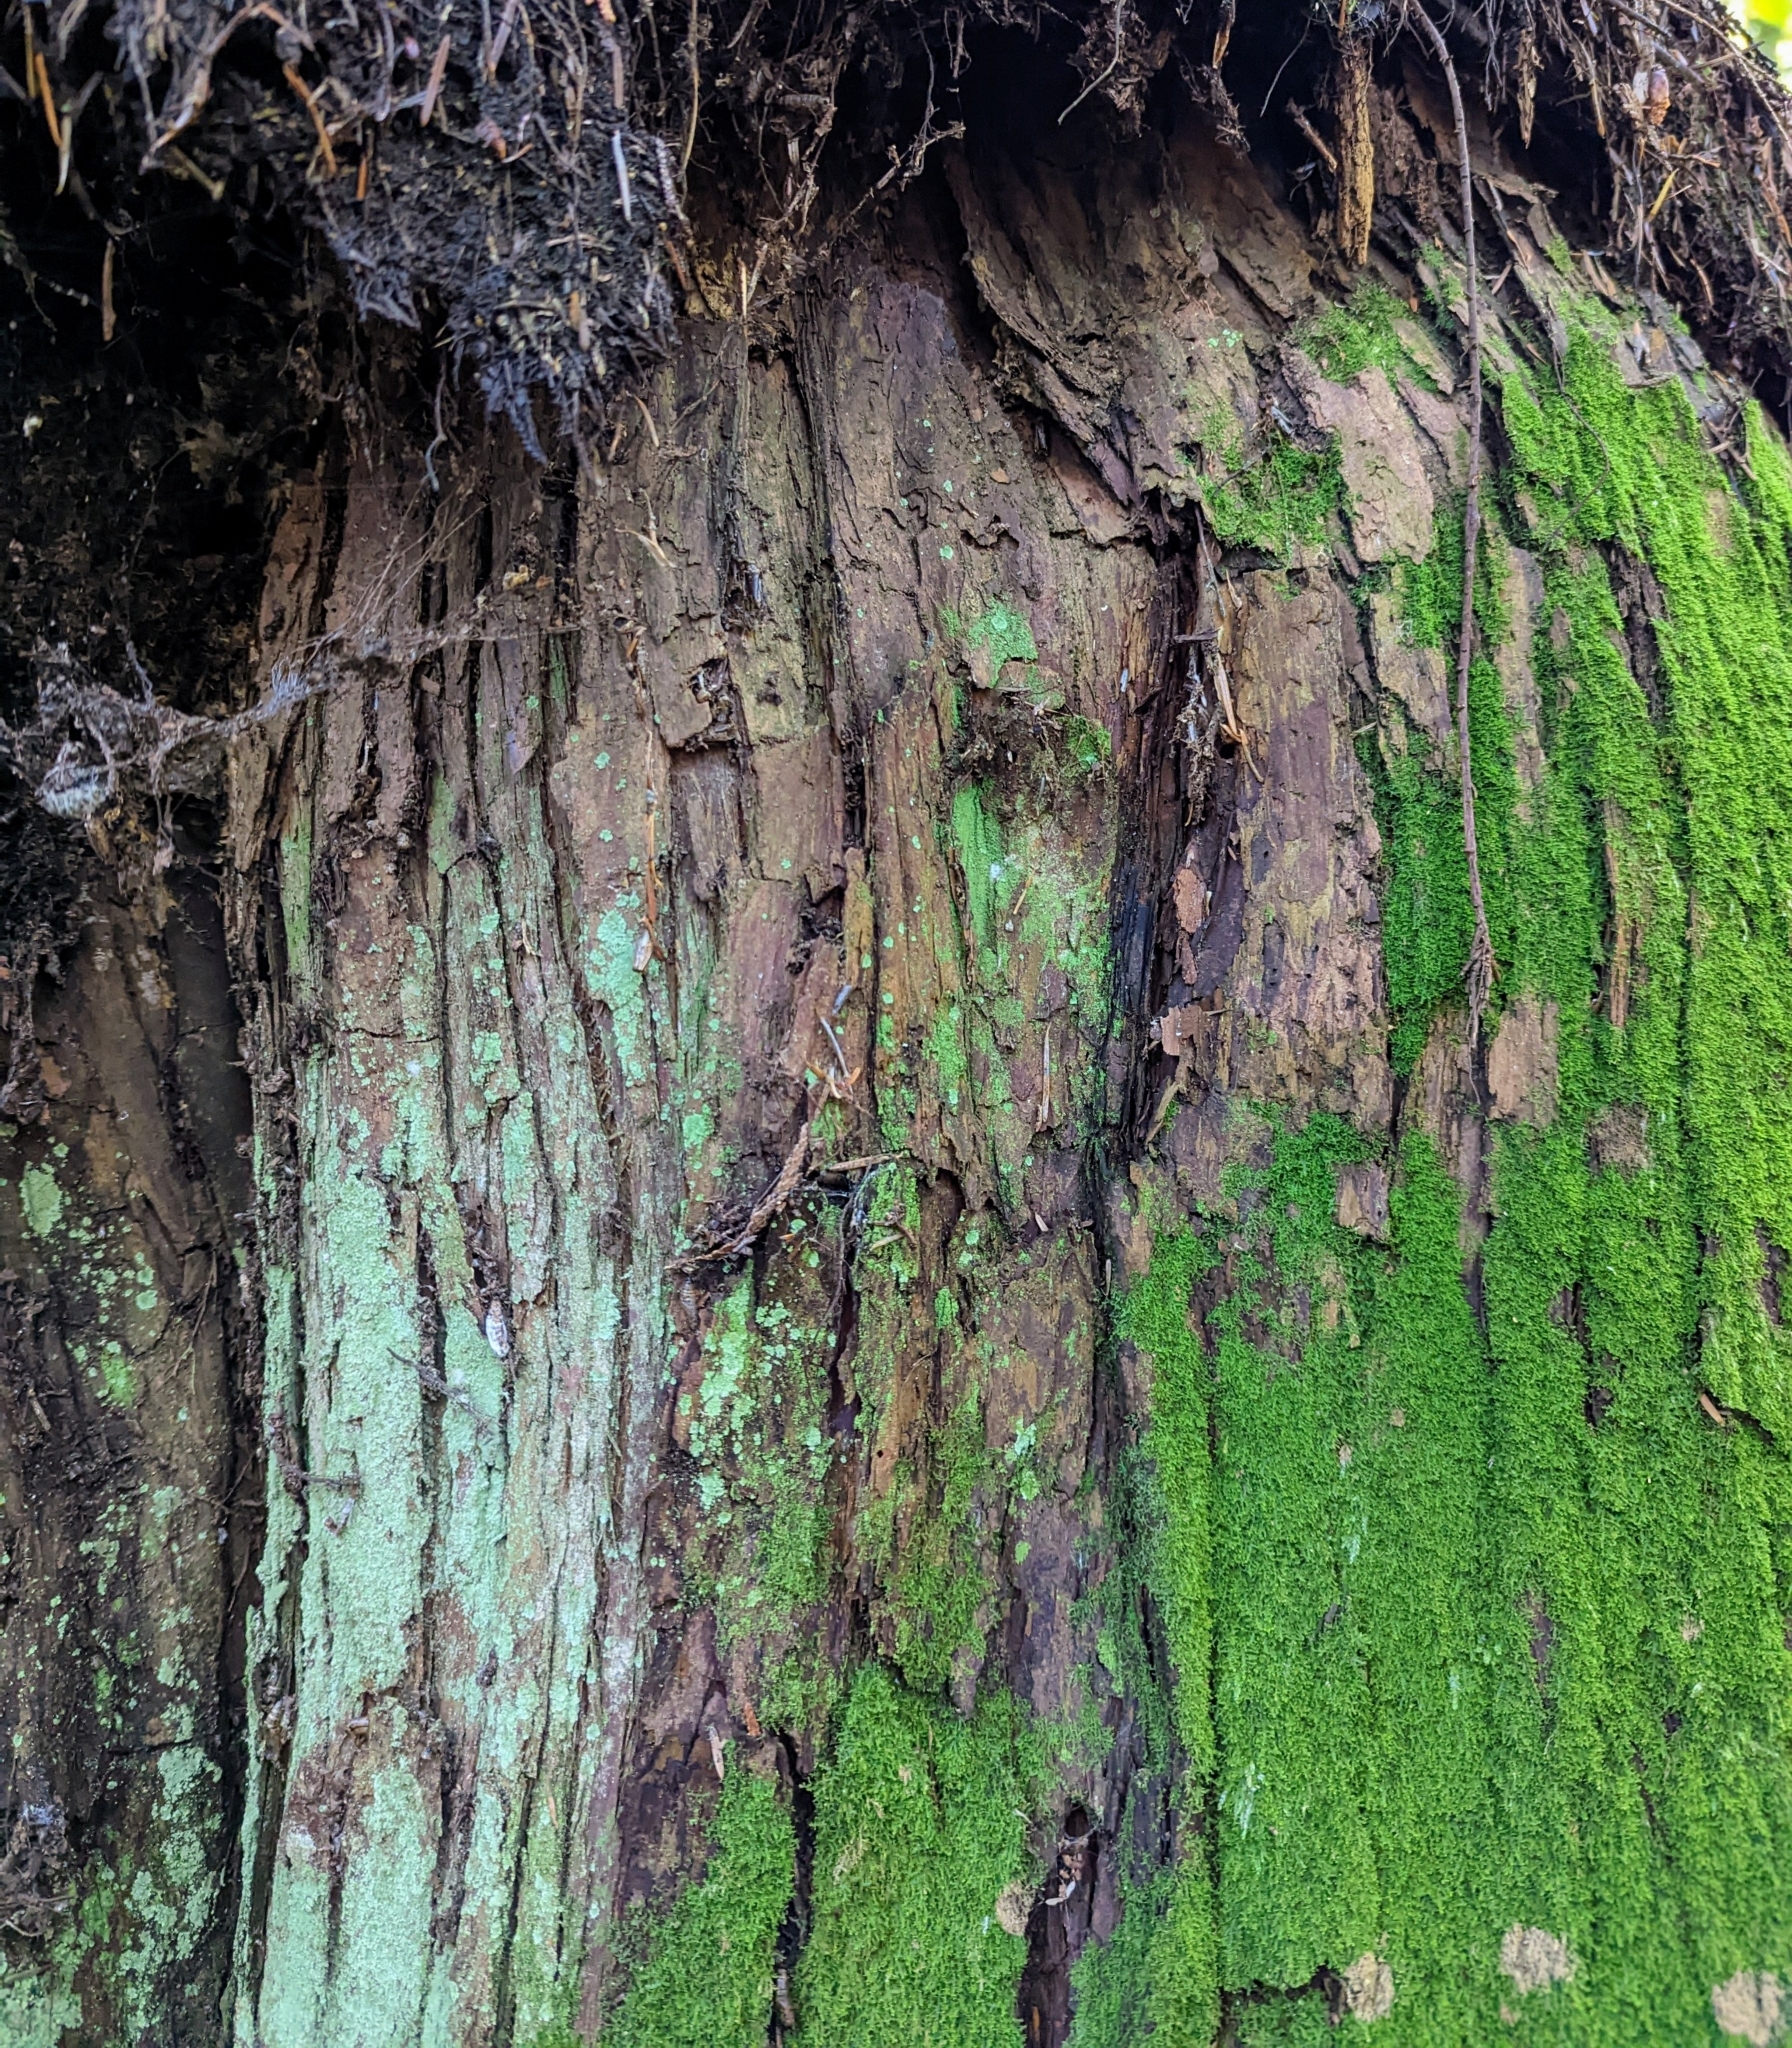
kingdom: Plantae
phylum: Tracheophyta
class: Pinopsida
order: Pinales
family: Pinaceae
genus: Tsuga
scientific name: Tsuga heterophylla
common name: Western hemlock
